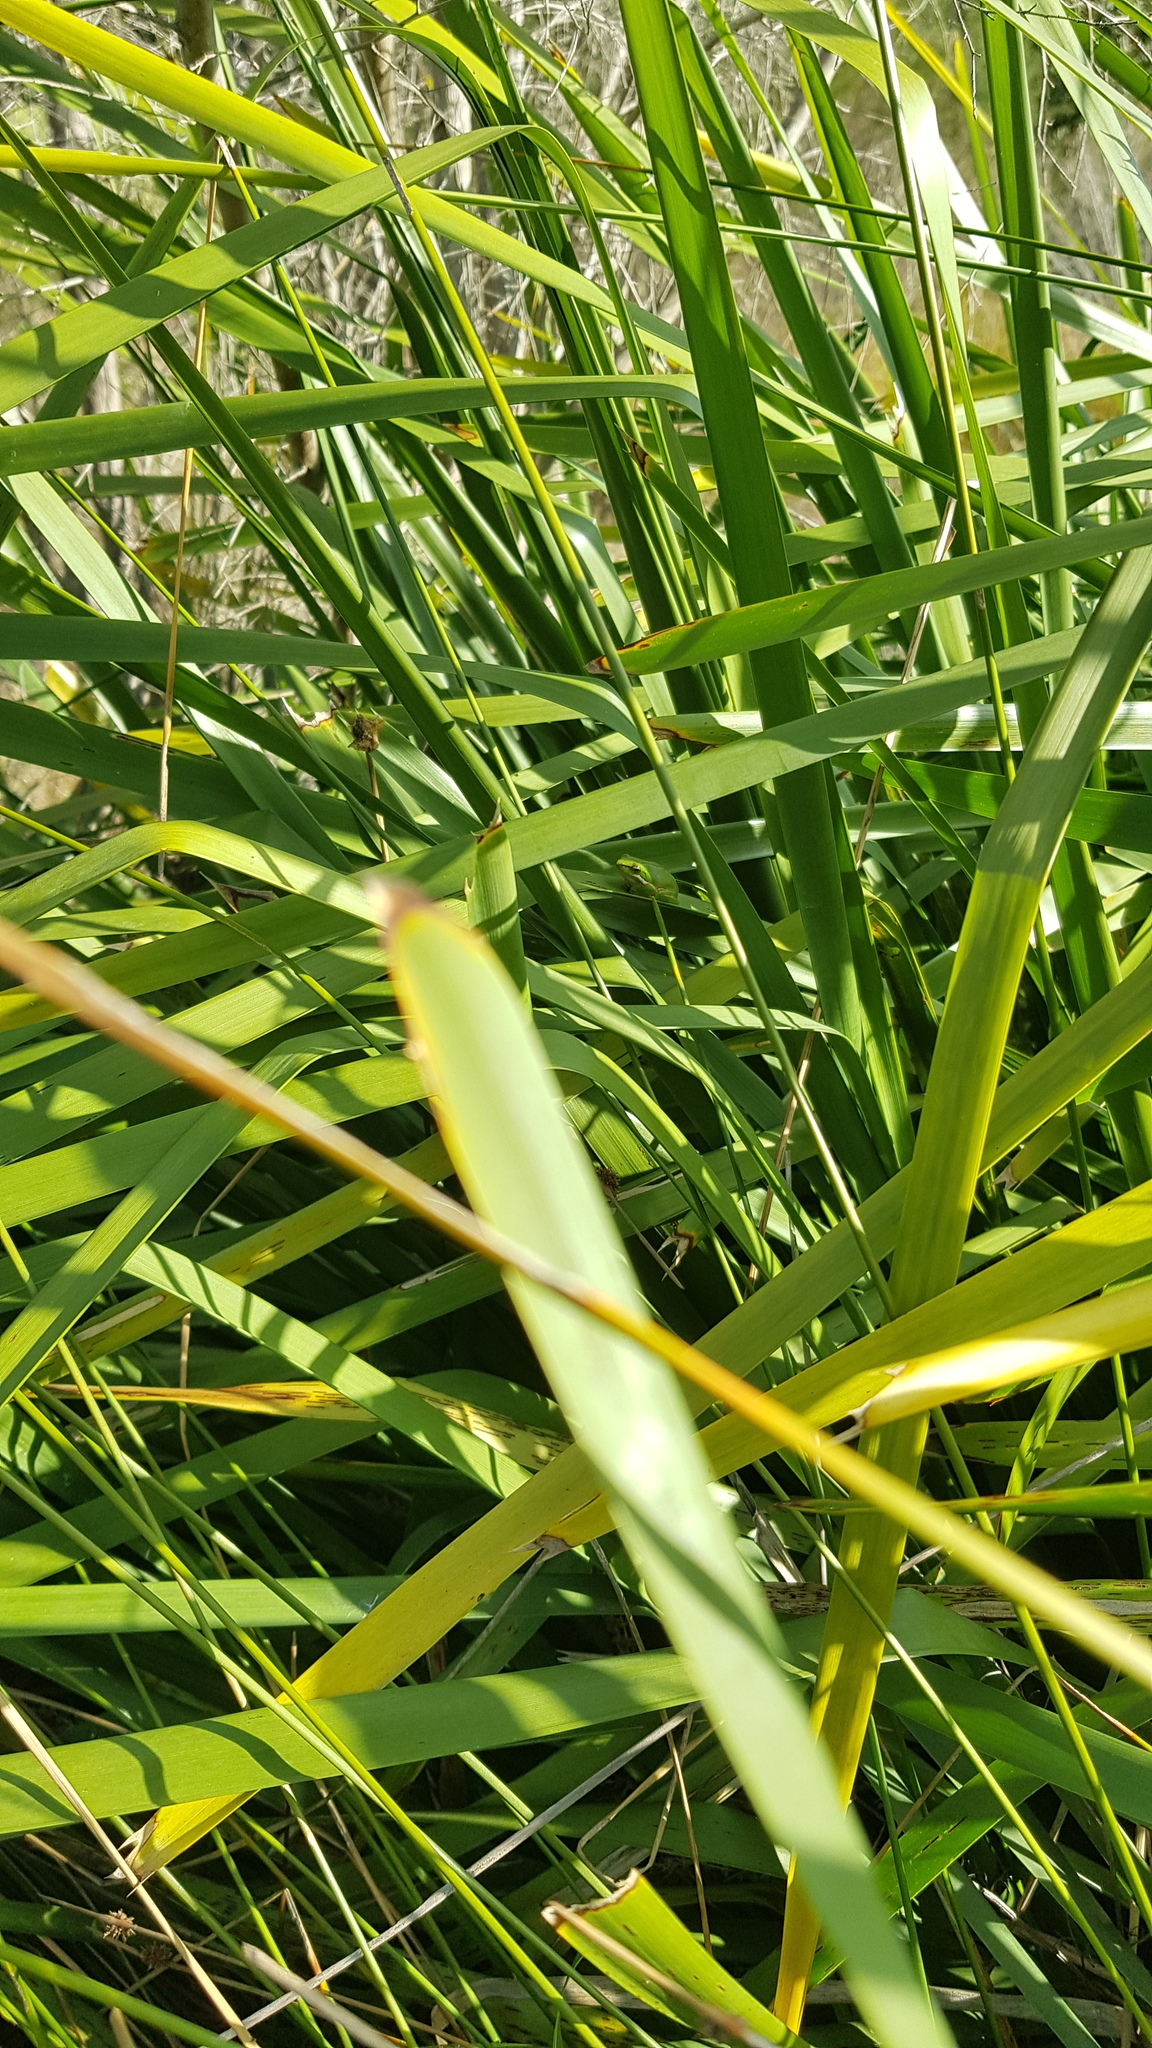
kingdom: Animalia
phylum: Chordata
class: Amphibia
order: Anura
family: Pelodryadidae
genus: Litoria
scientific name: Litoria fallax
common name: Eastern dwarf treefrog
